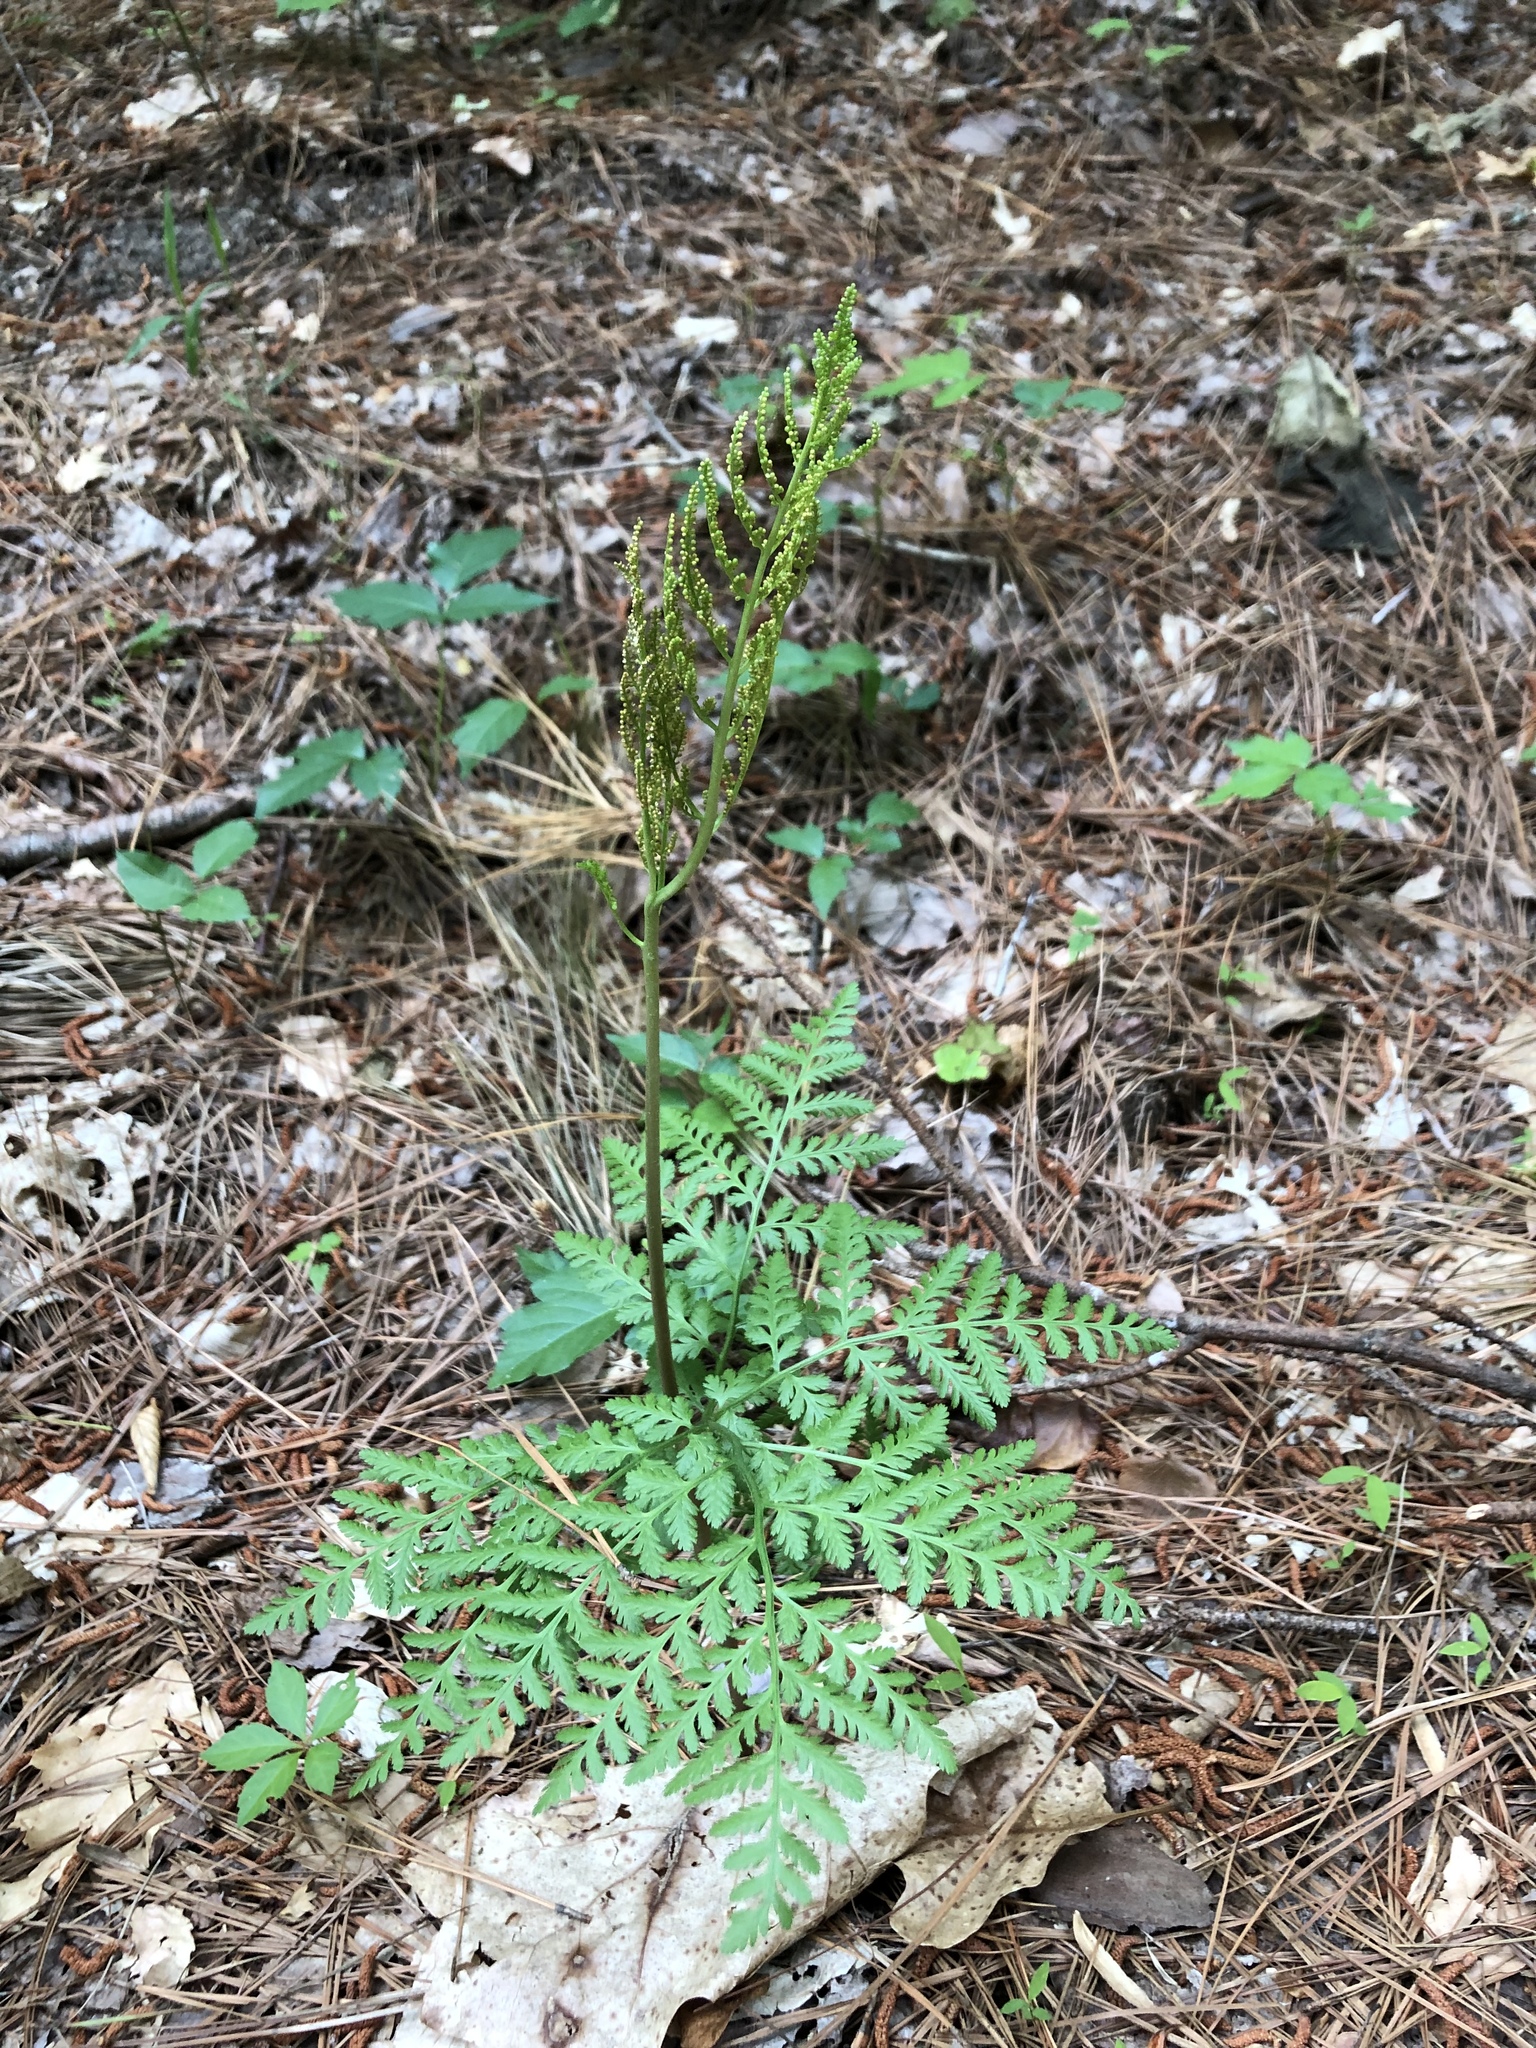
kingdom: Plantae
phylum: Tracheophyta
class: Polypodiopsida
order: Ophioglossales
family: Ophioglossaceae
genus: Botrypus
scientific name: Botrypus virginianus
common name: Common grapefern
